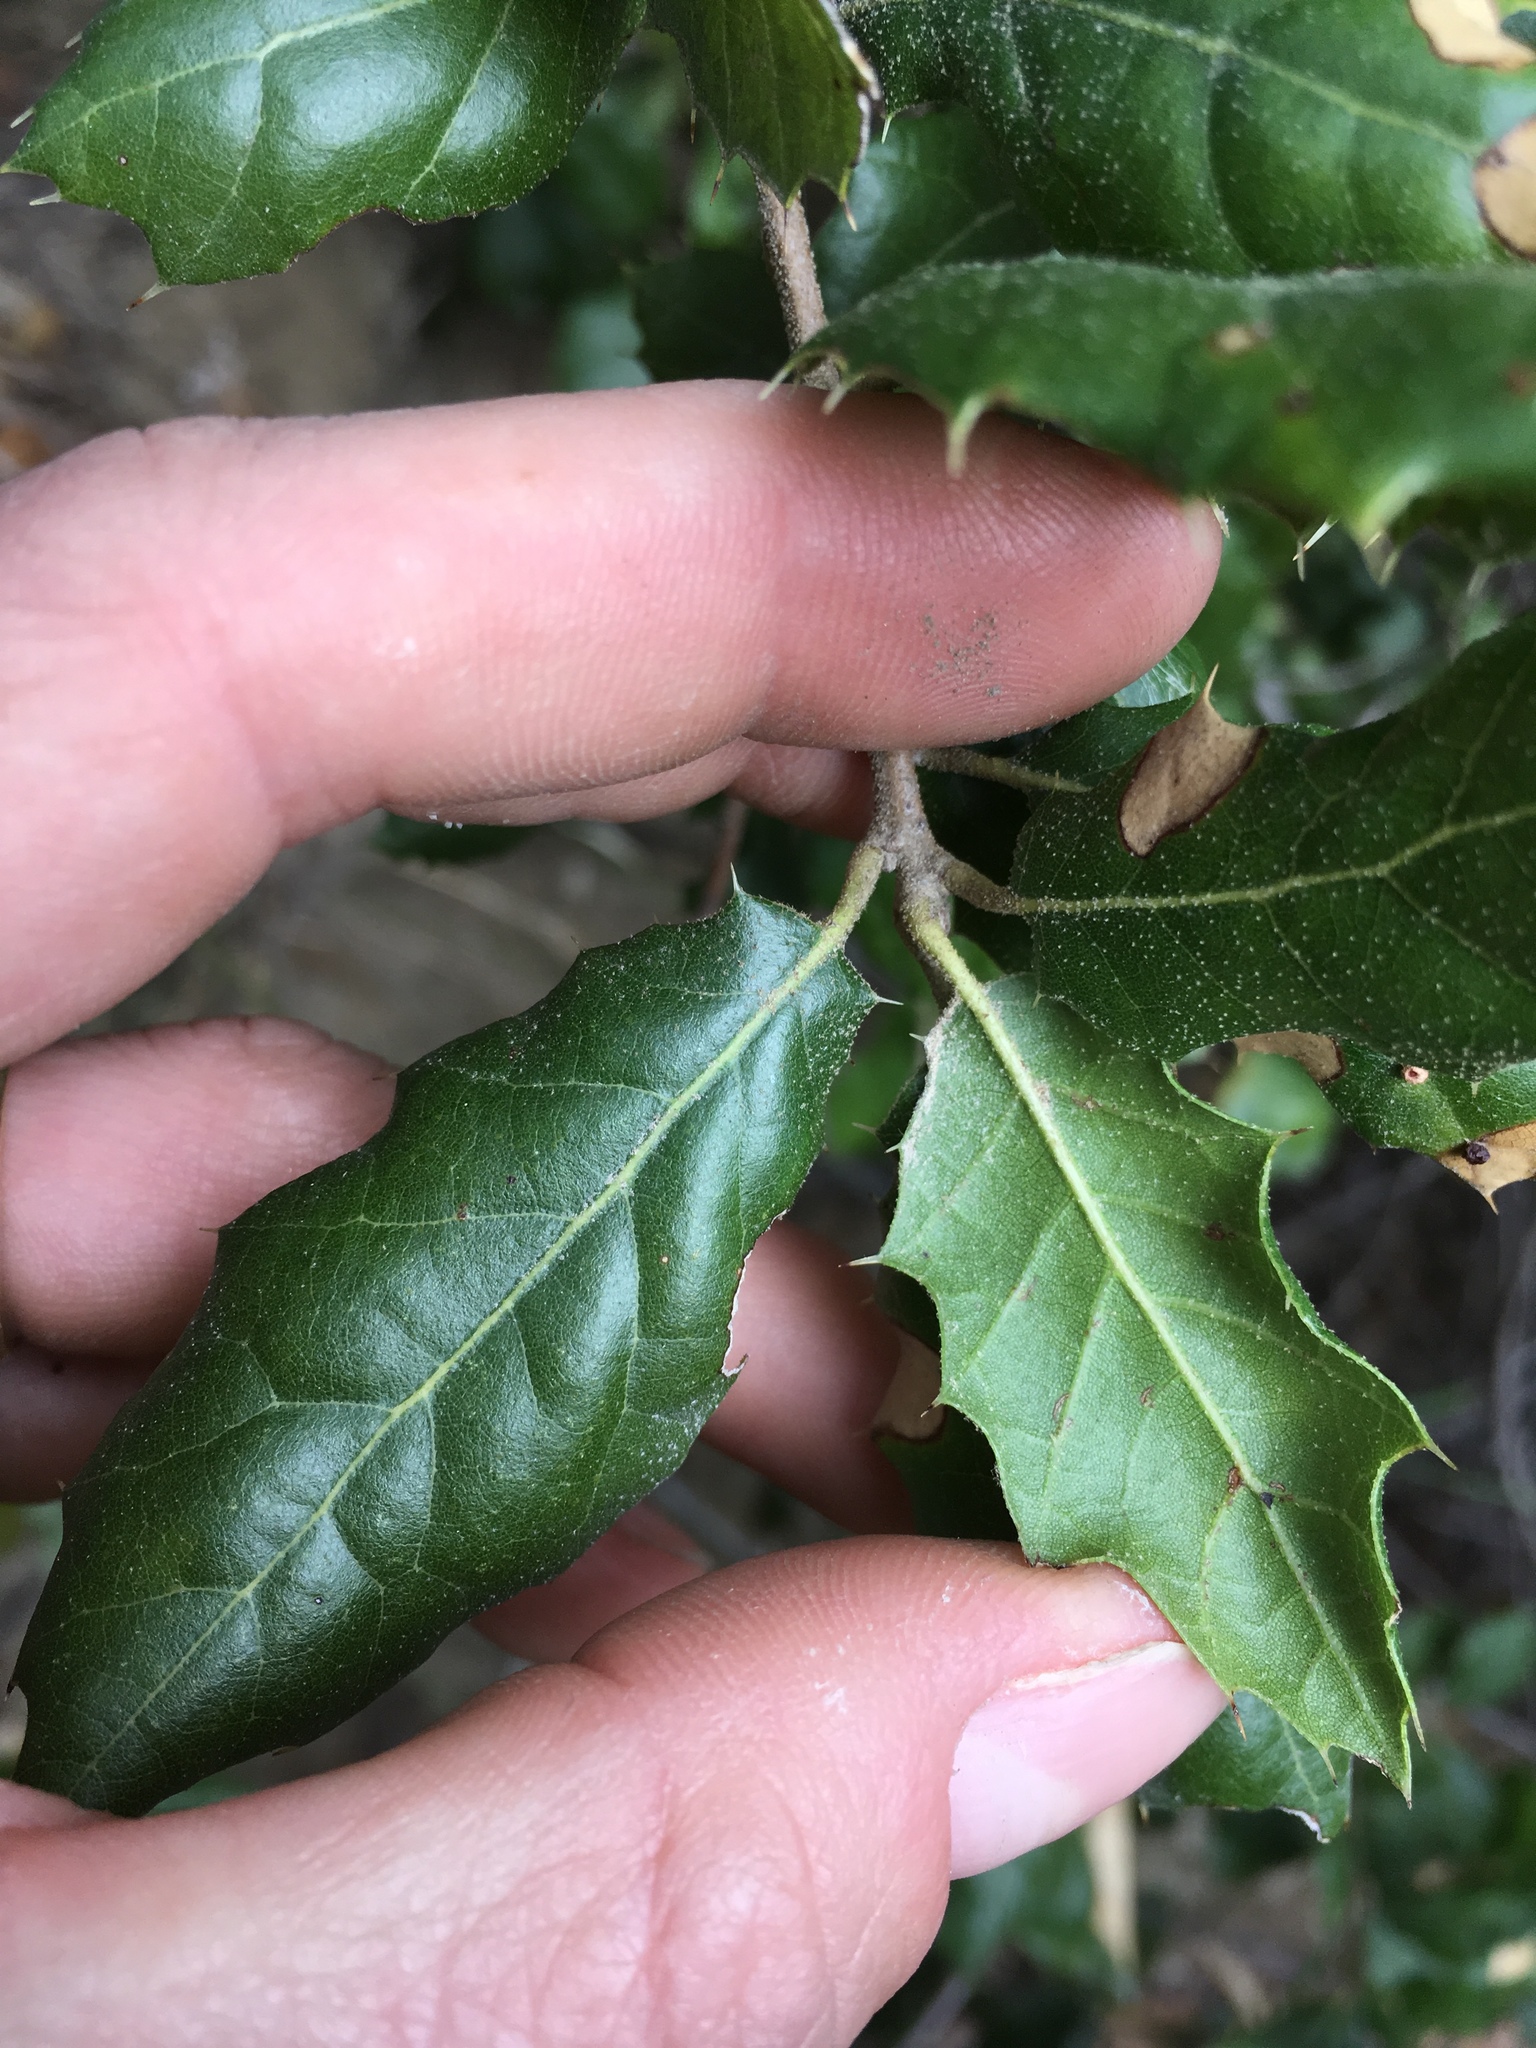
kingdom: Plantae
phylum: Tracheophyta
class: Magnoliopsida
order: Fagales
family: Fagaceae
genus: Quercus
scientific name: Quercus agrifolia
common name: California live oak
